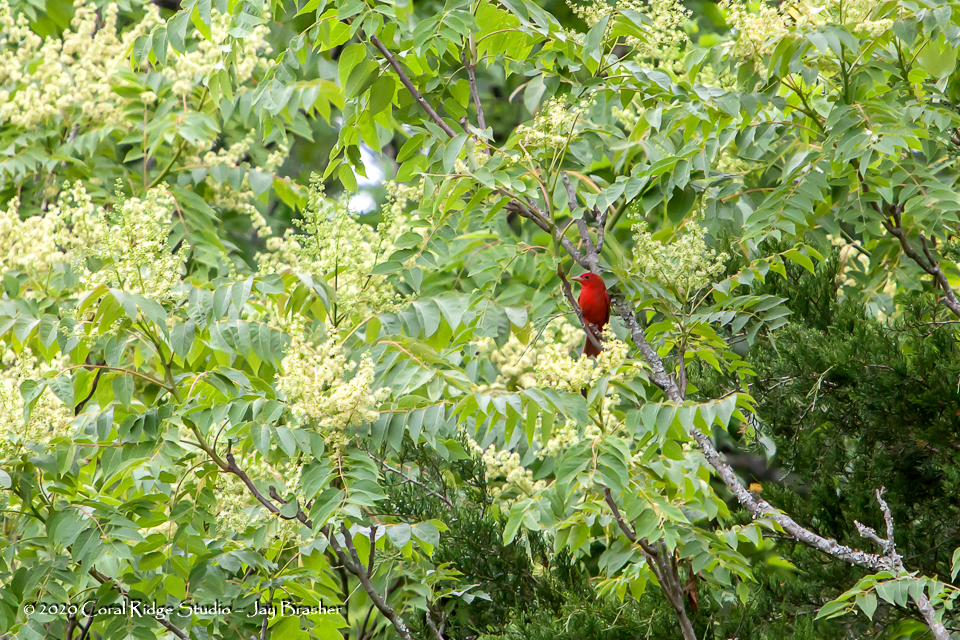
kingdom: Animalia
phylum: Chordata
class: Aves
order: Passeriformes
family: Cardinalidae
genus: Piranga
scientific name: Piranga rubra
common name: Summer tanager
